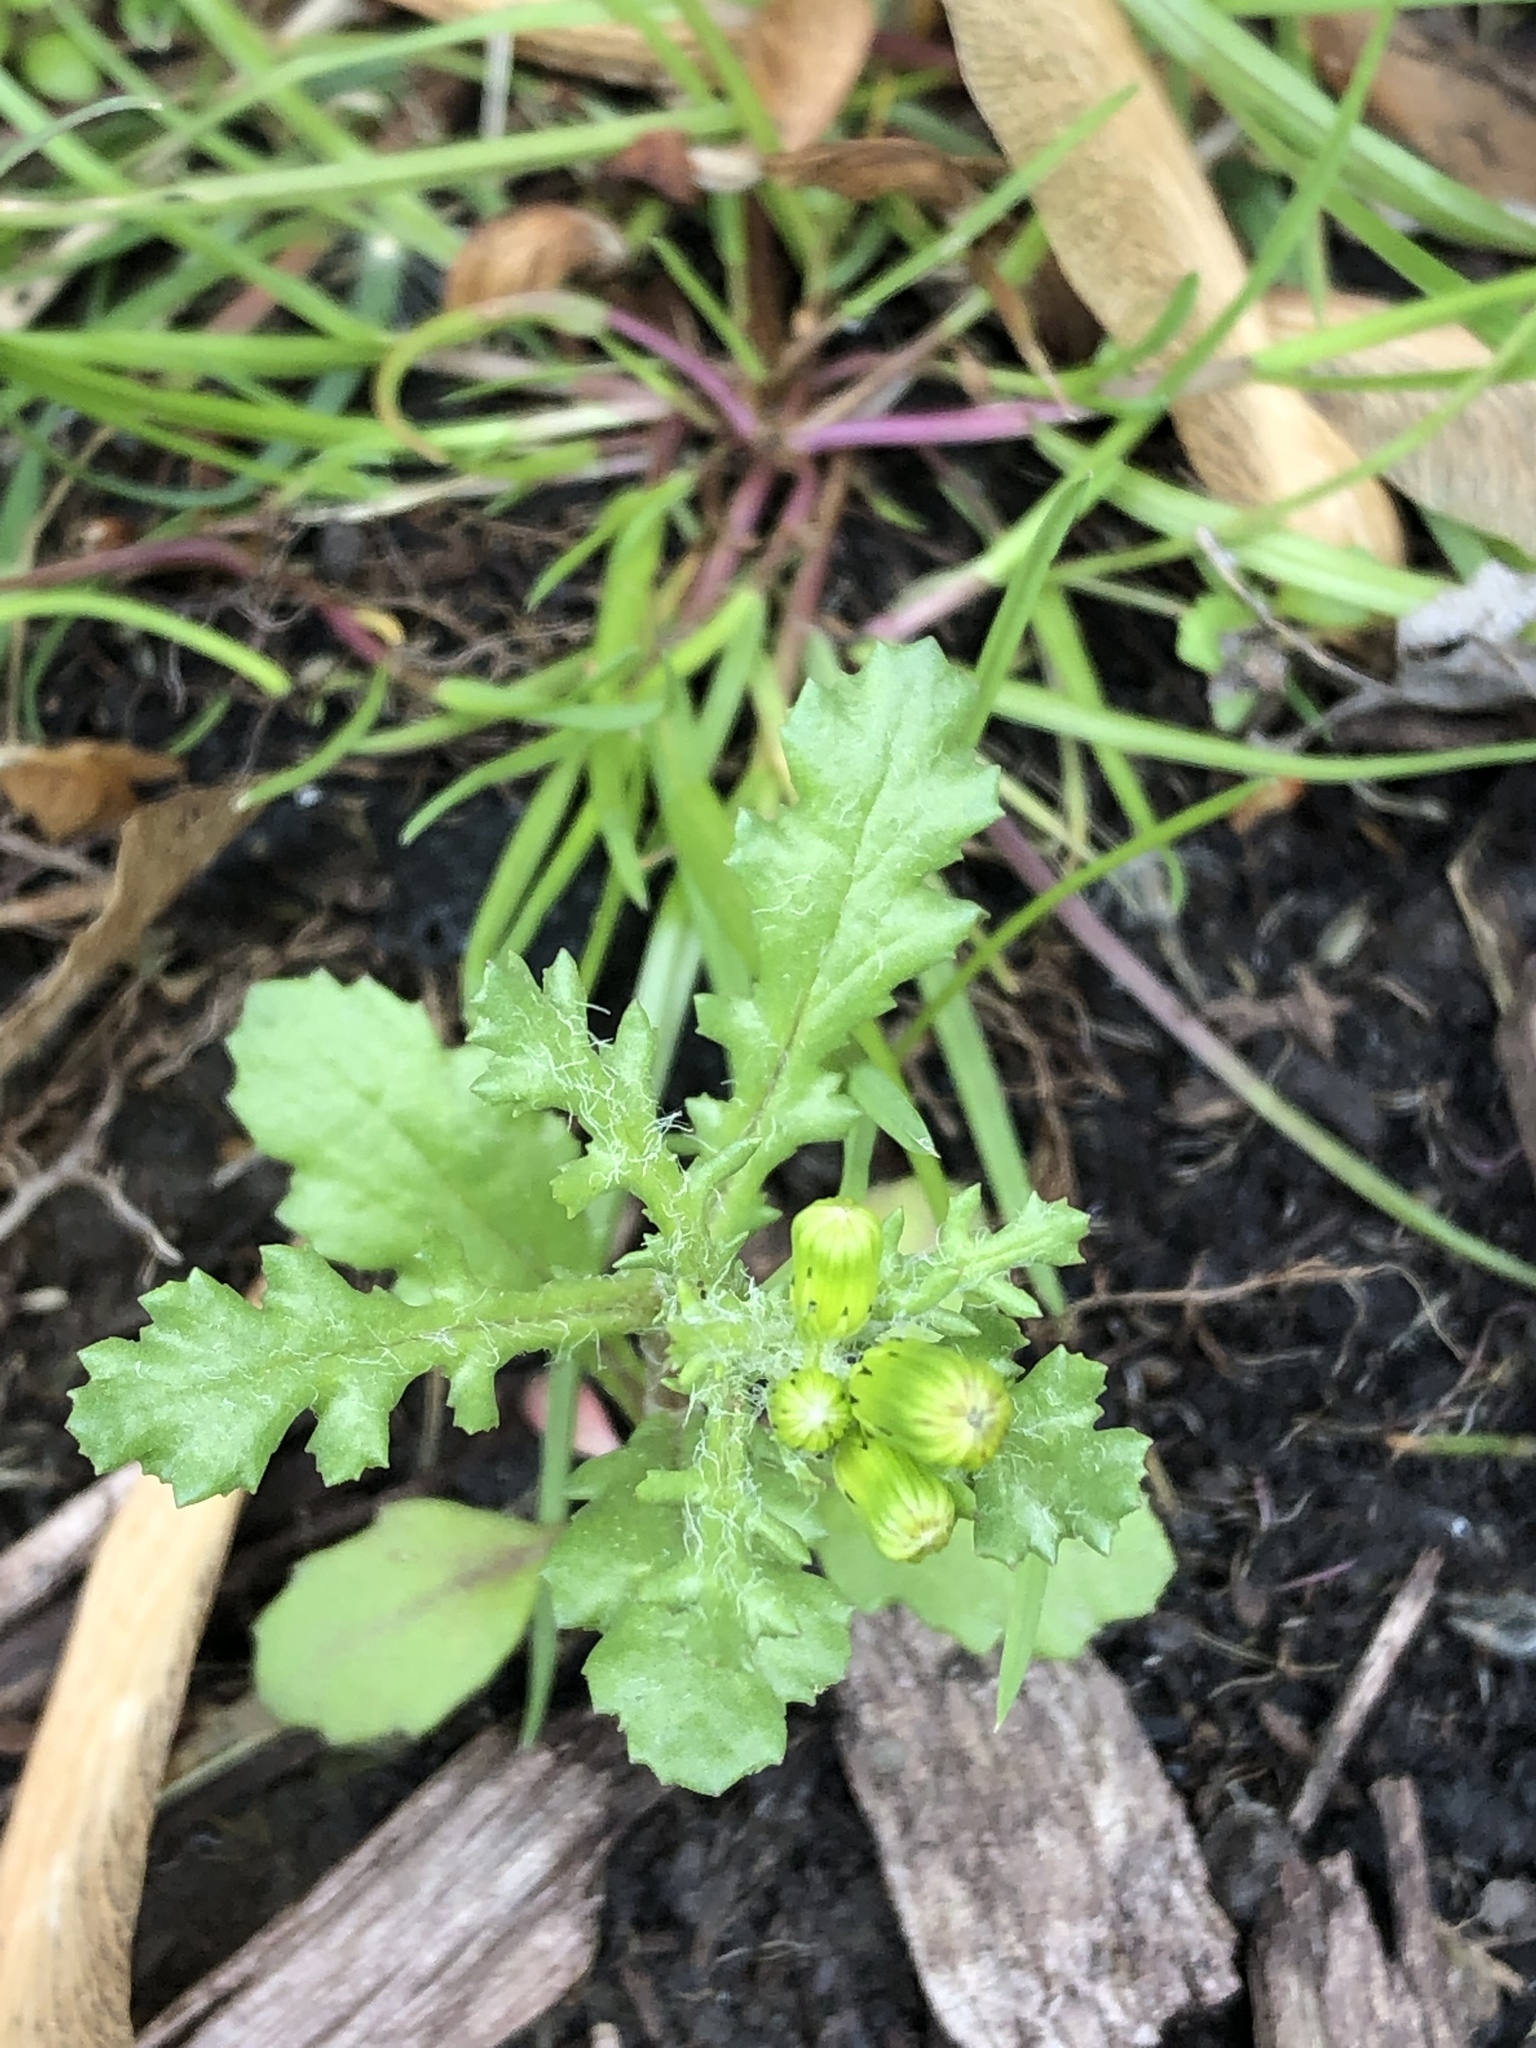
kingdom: Plantae
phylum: Tracheophyta
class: Magnoliopsida
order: Asterales
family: Asteraceae
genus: Senecio
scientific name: Senecio vulgaris
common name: Old-man-in-the-spring
